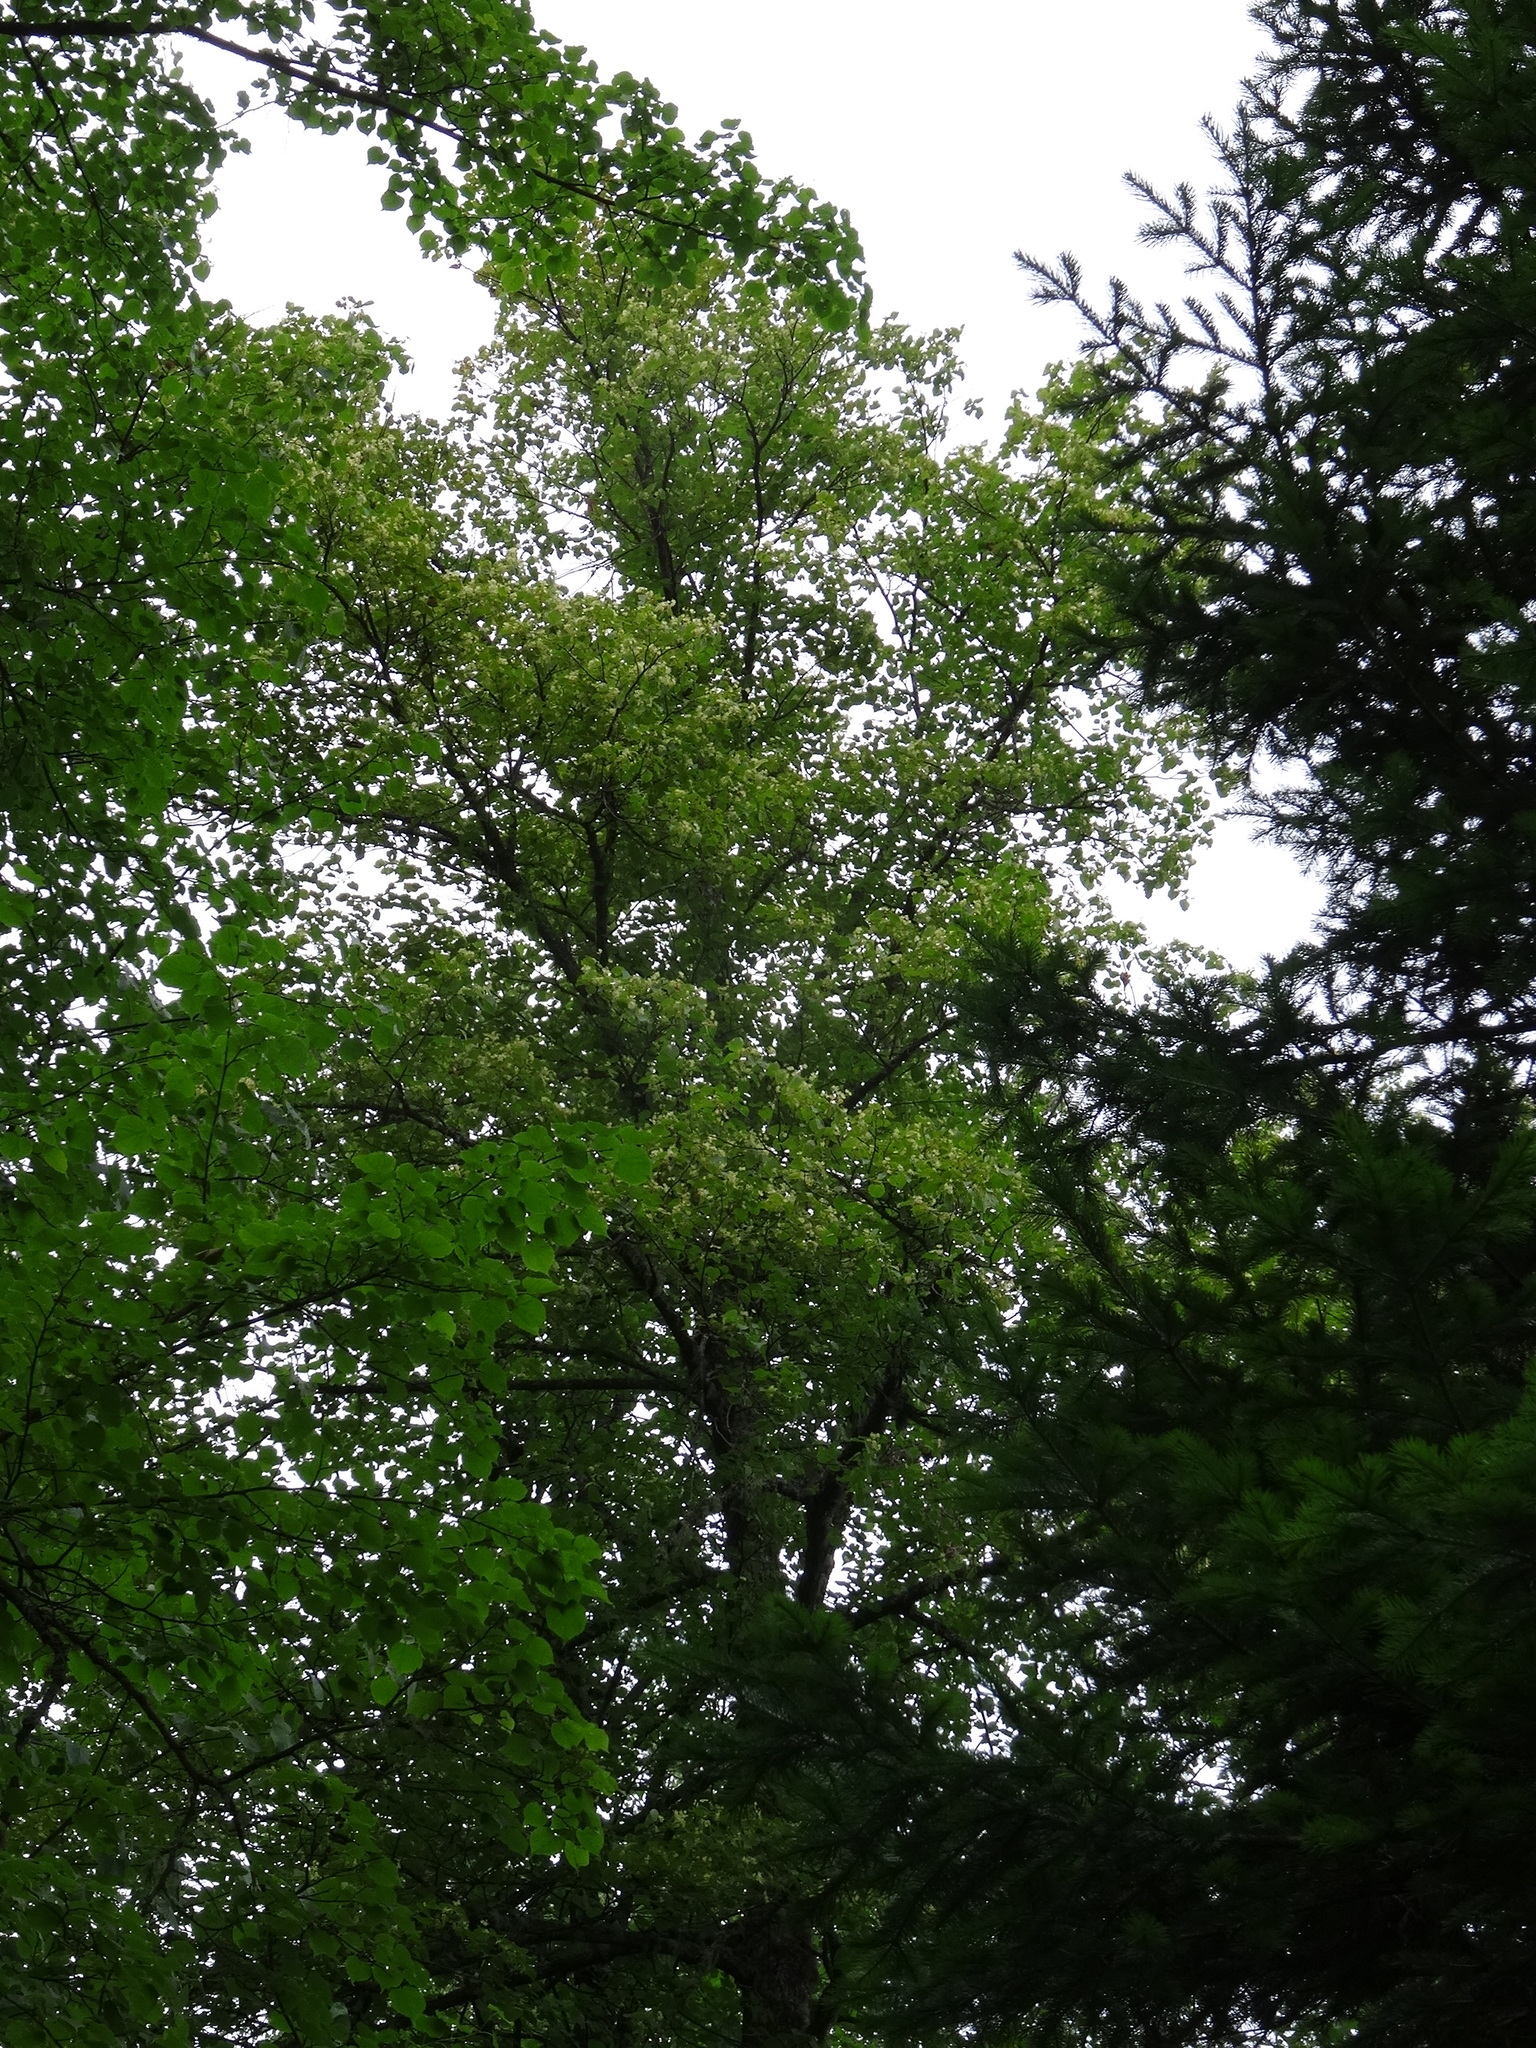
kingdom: Plantae
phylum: Tracheophyta
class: Magnoliopsida
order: Malvales
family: Malvaceae
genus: Tilia
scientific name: Tilia cordata
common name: Small-leaved lime
